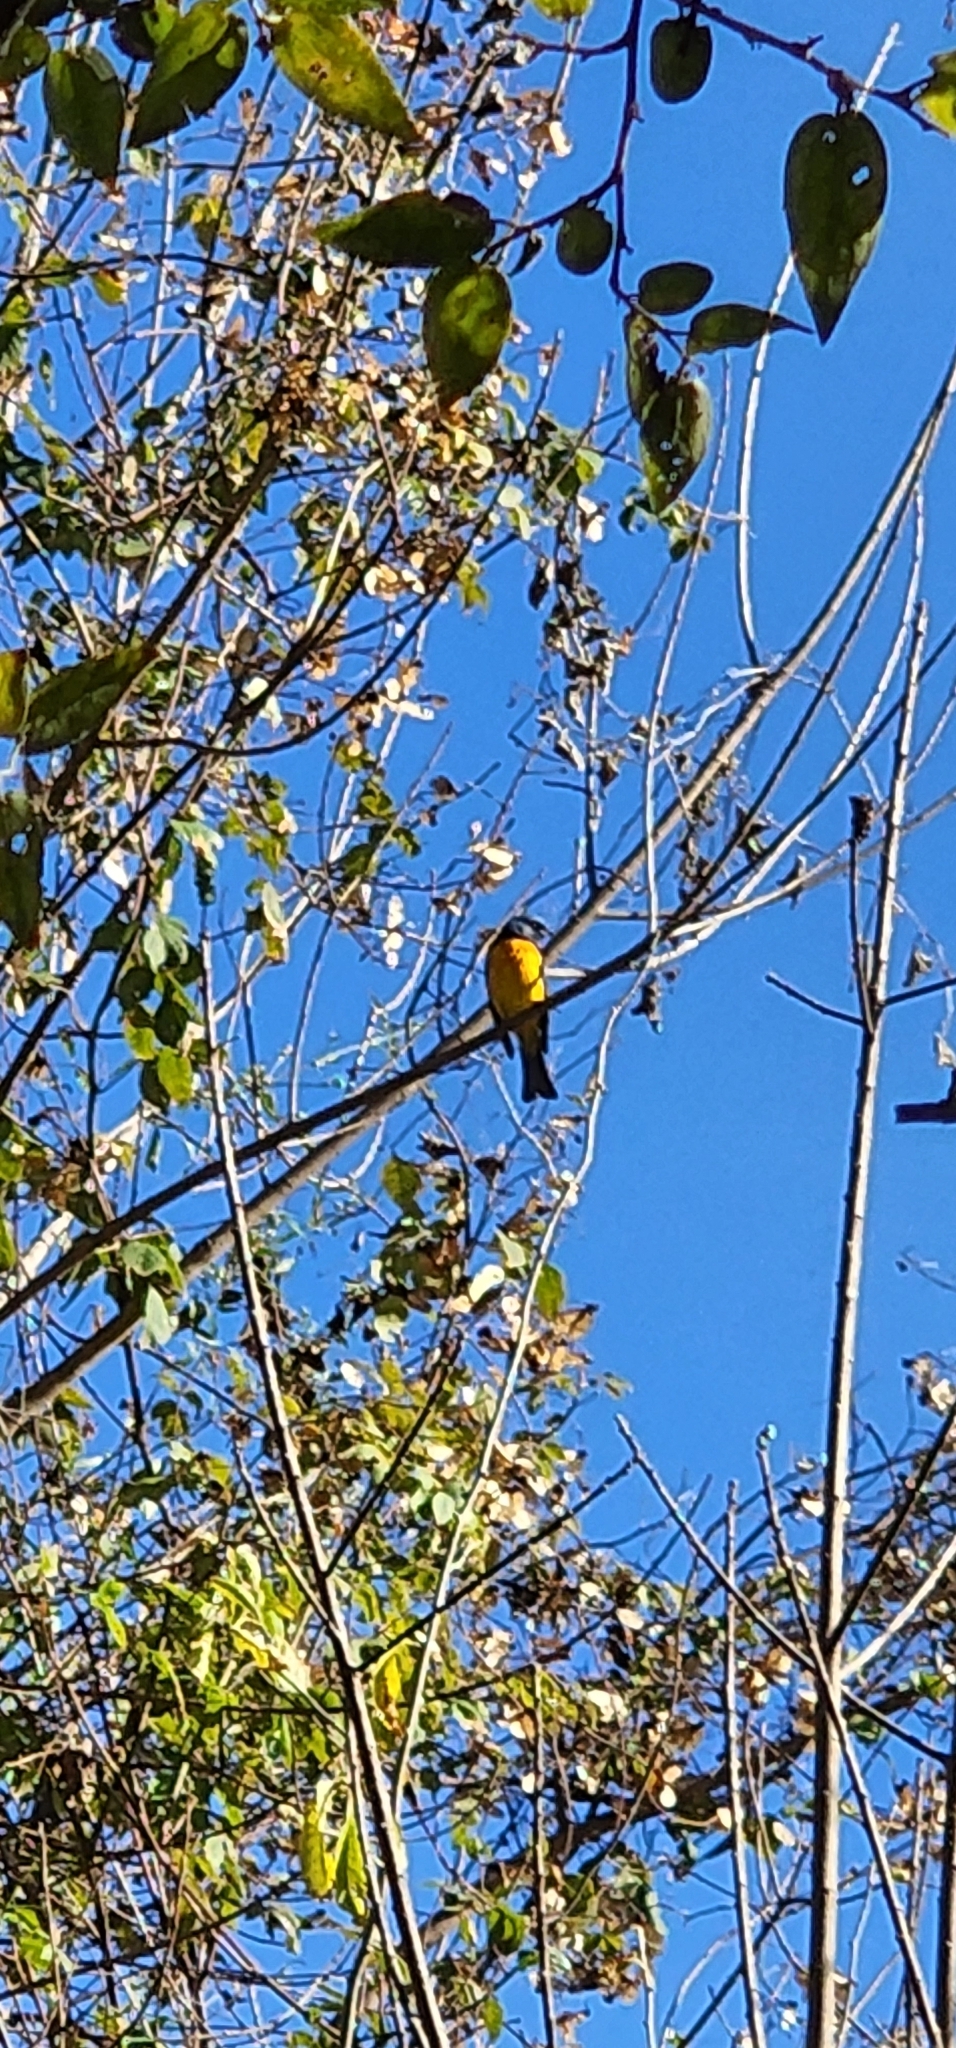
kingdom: Animalia
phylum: Chordata
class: Aves
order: Passeriformes
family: Thraupidae
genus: Rauenia
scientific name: Rauenia bonariensis
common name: Blue-and-yellow tanager
